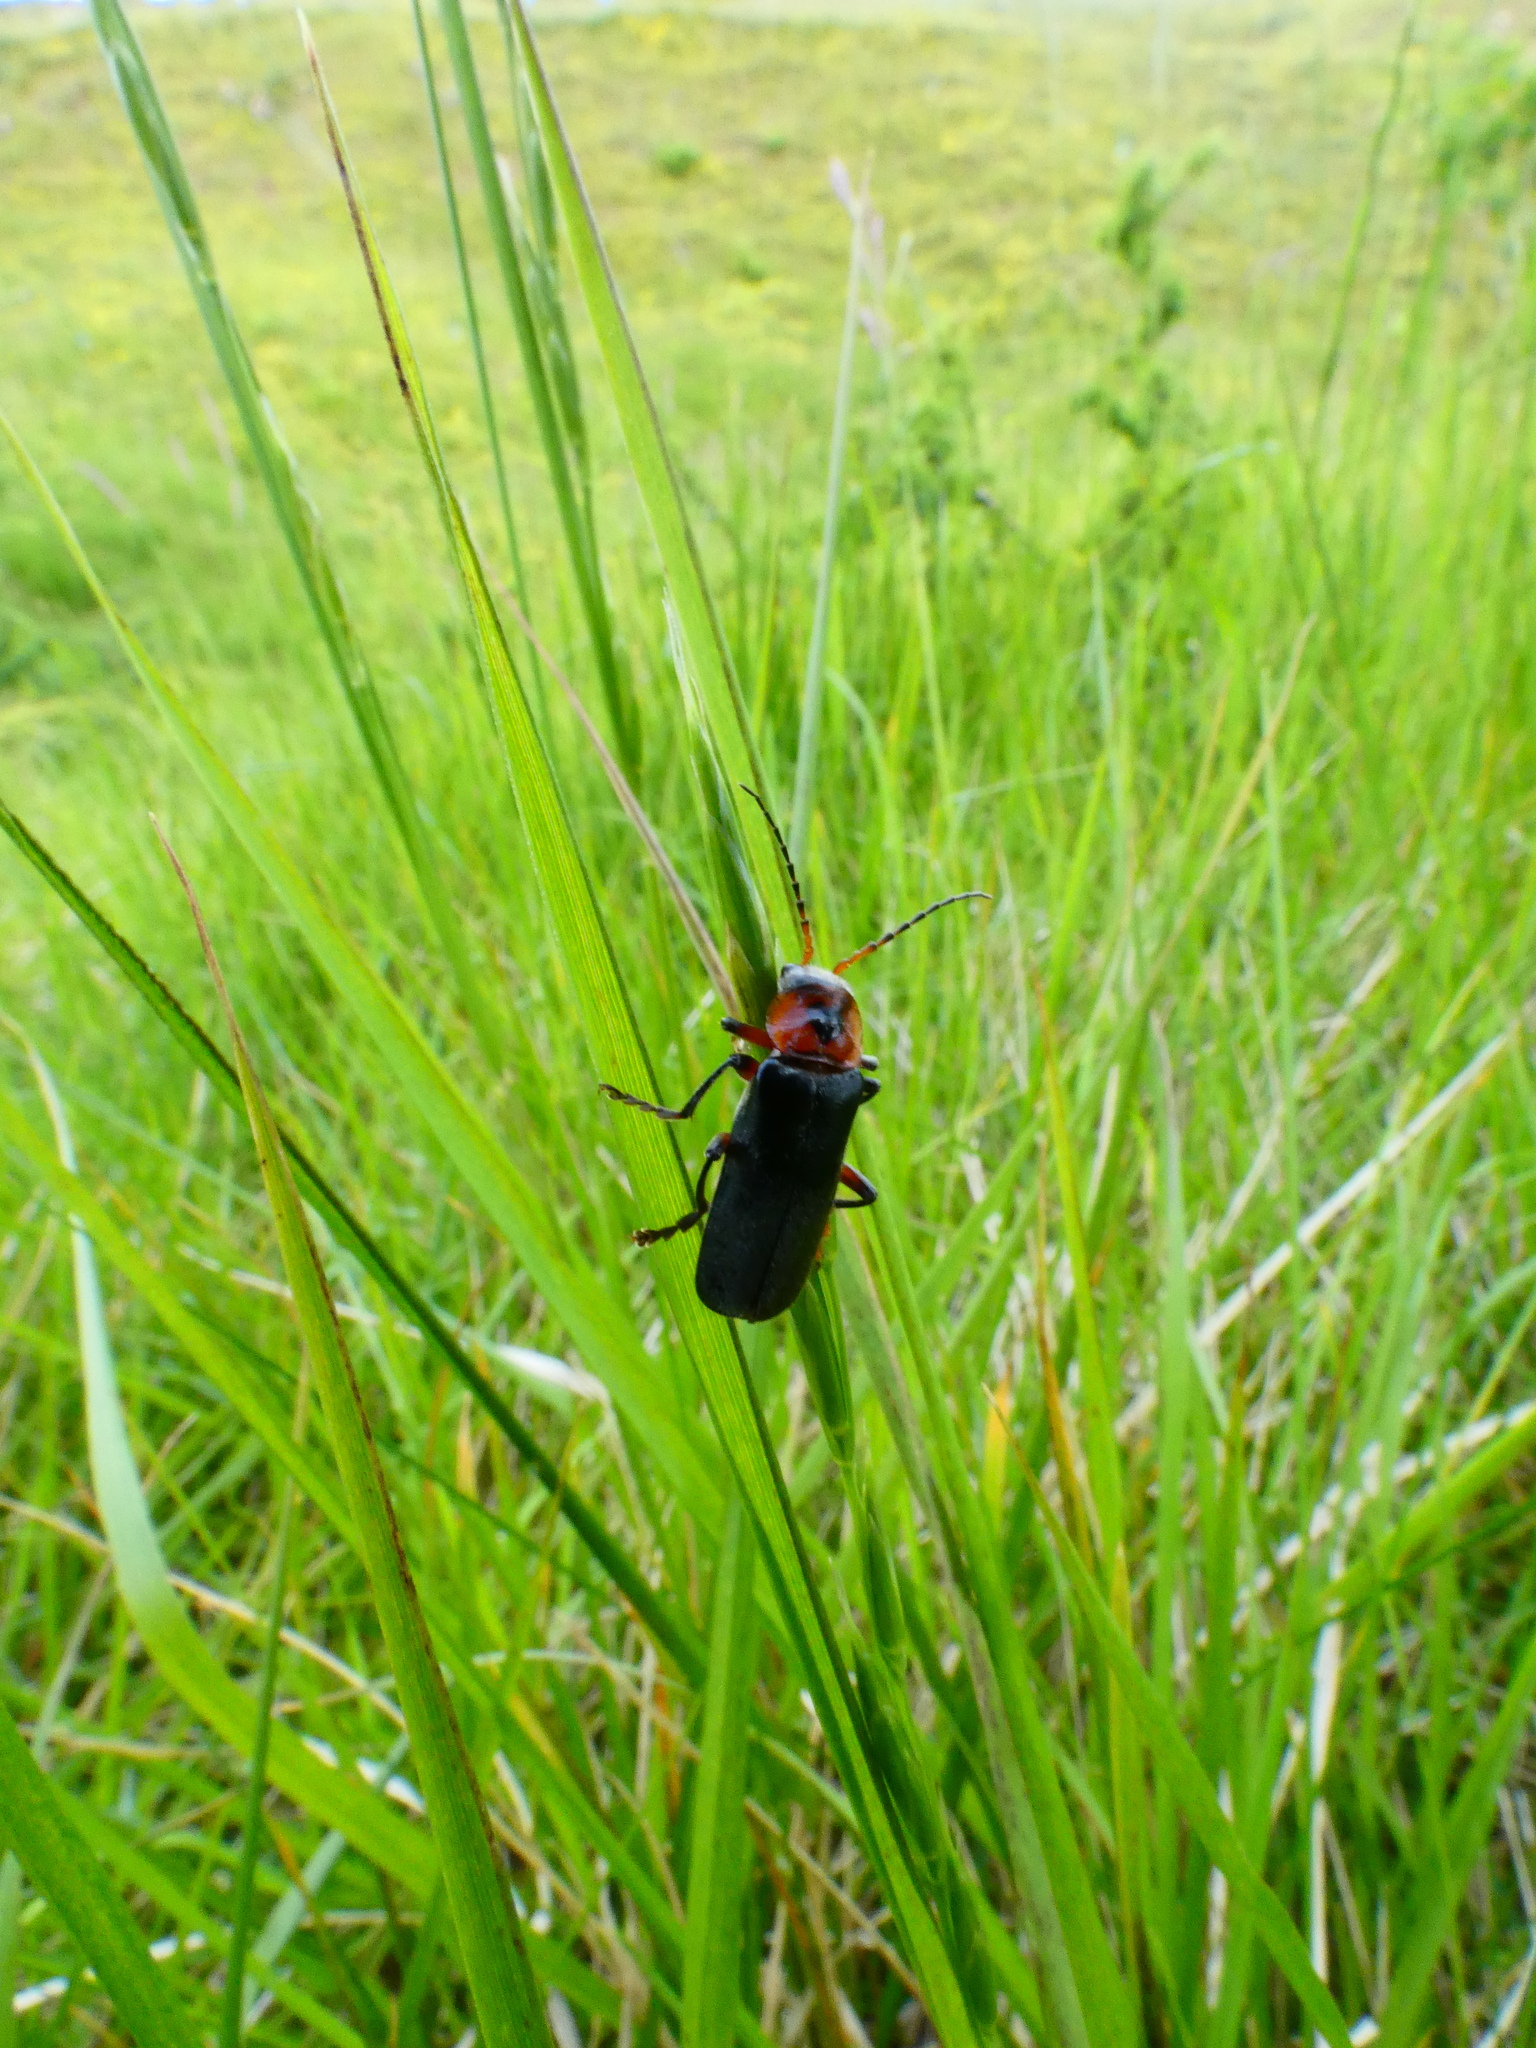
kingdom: Animalia
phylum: Arthropoda
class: Insecta
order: Coleoptera
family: Cantharidae
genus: Cantharis
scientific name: Cantharis rustica
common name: Soldier beetle
